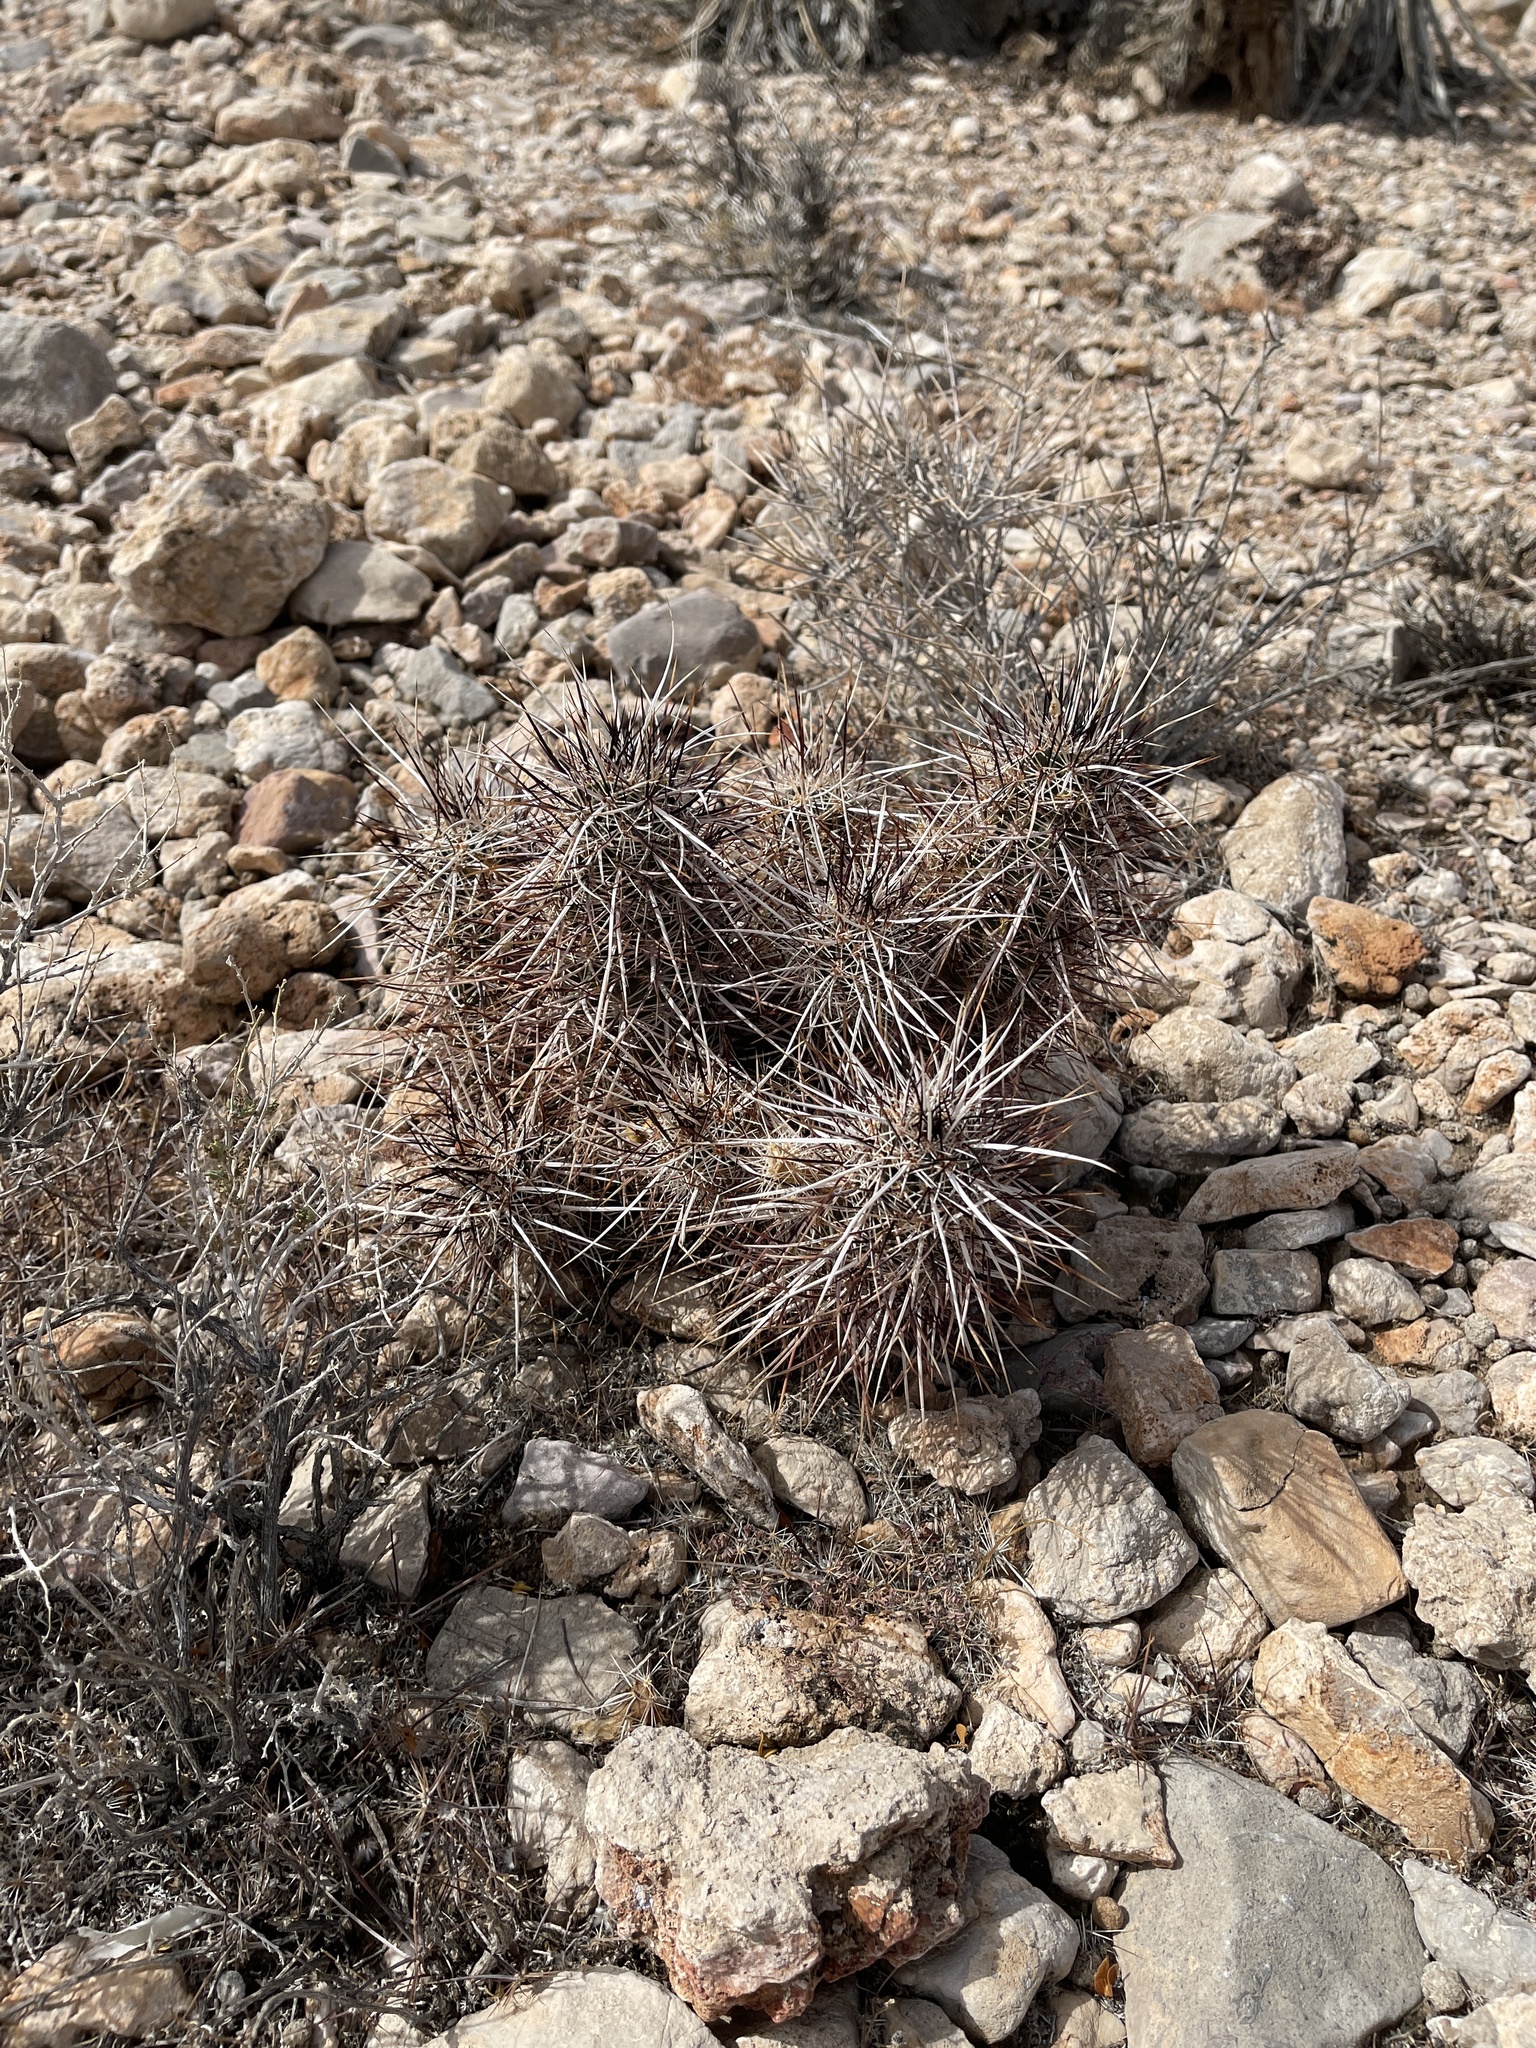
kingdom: Plantae
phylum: Tracheophyta
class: Magnoliopsida
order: Caryophyllales
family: Cactaceae
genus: Echinocereus
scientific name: Echinocereus engelmannii
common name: Engelmann's hedgehog cactus
